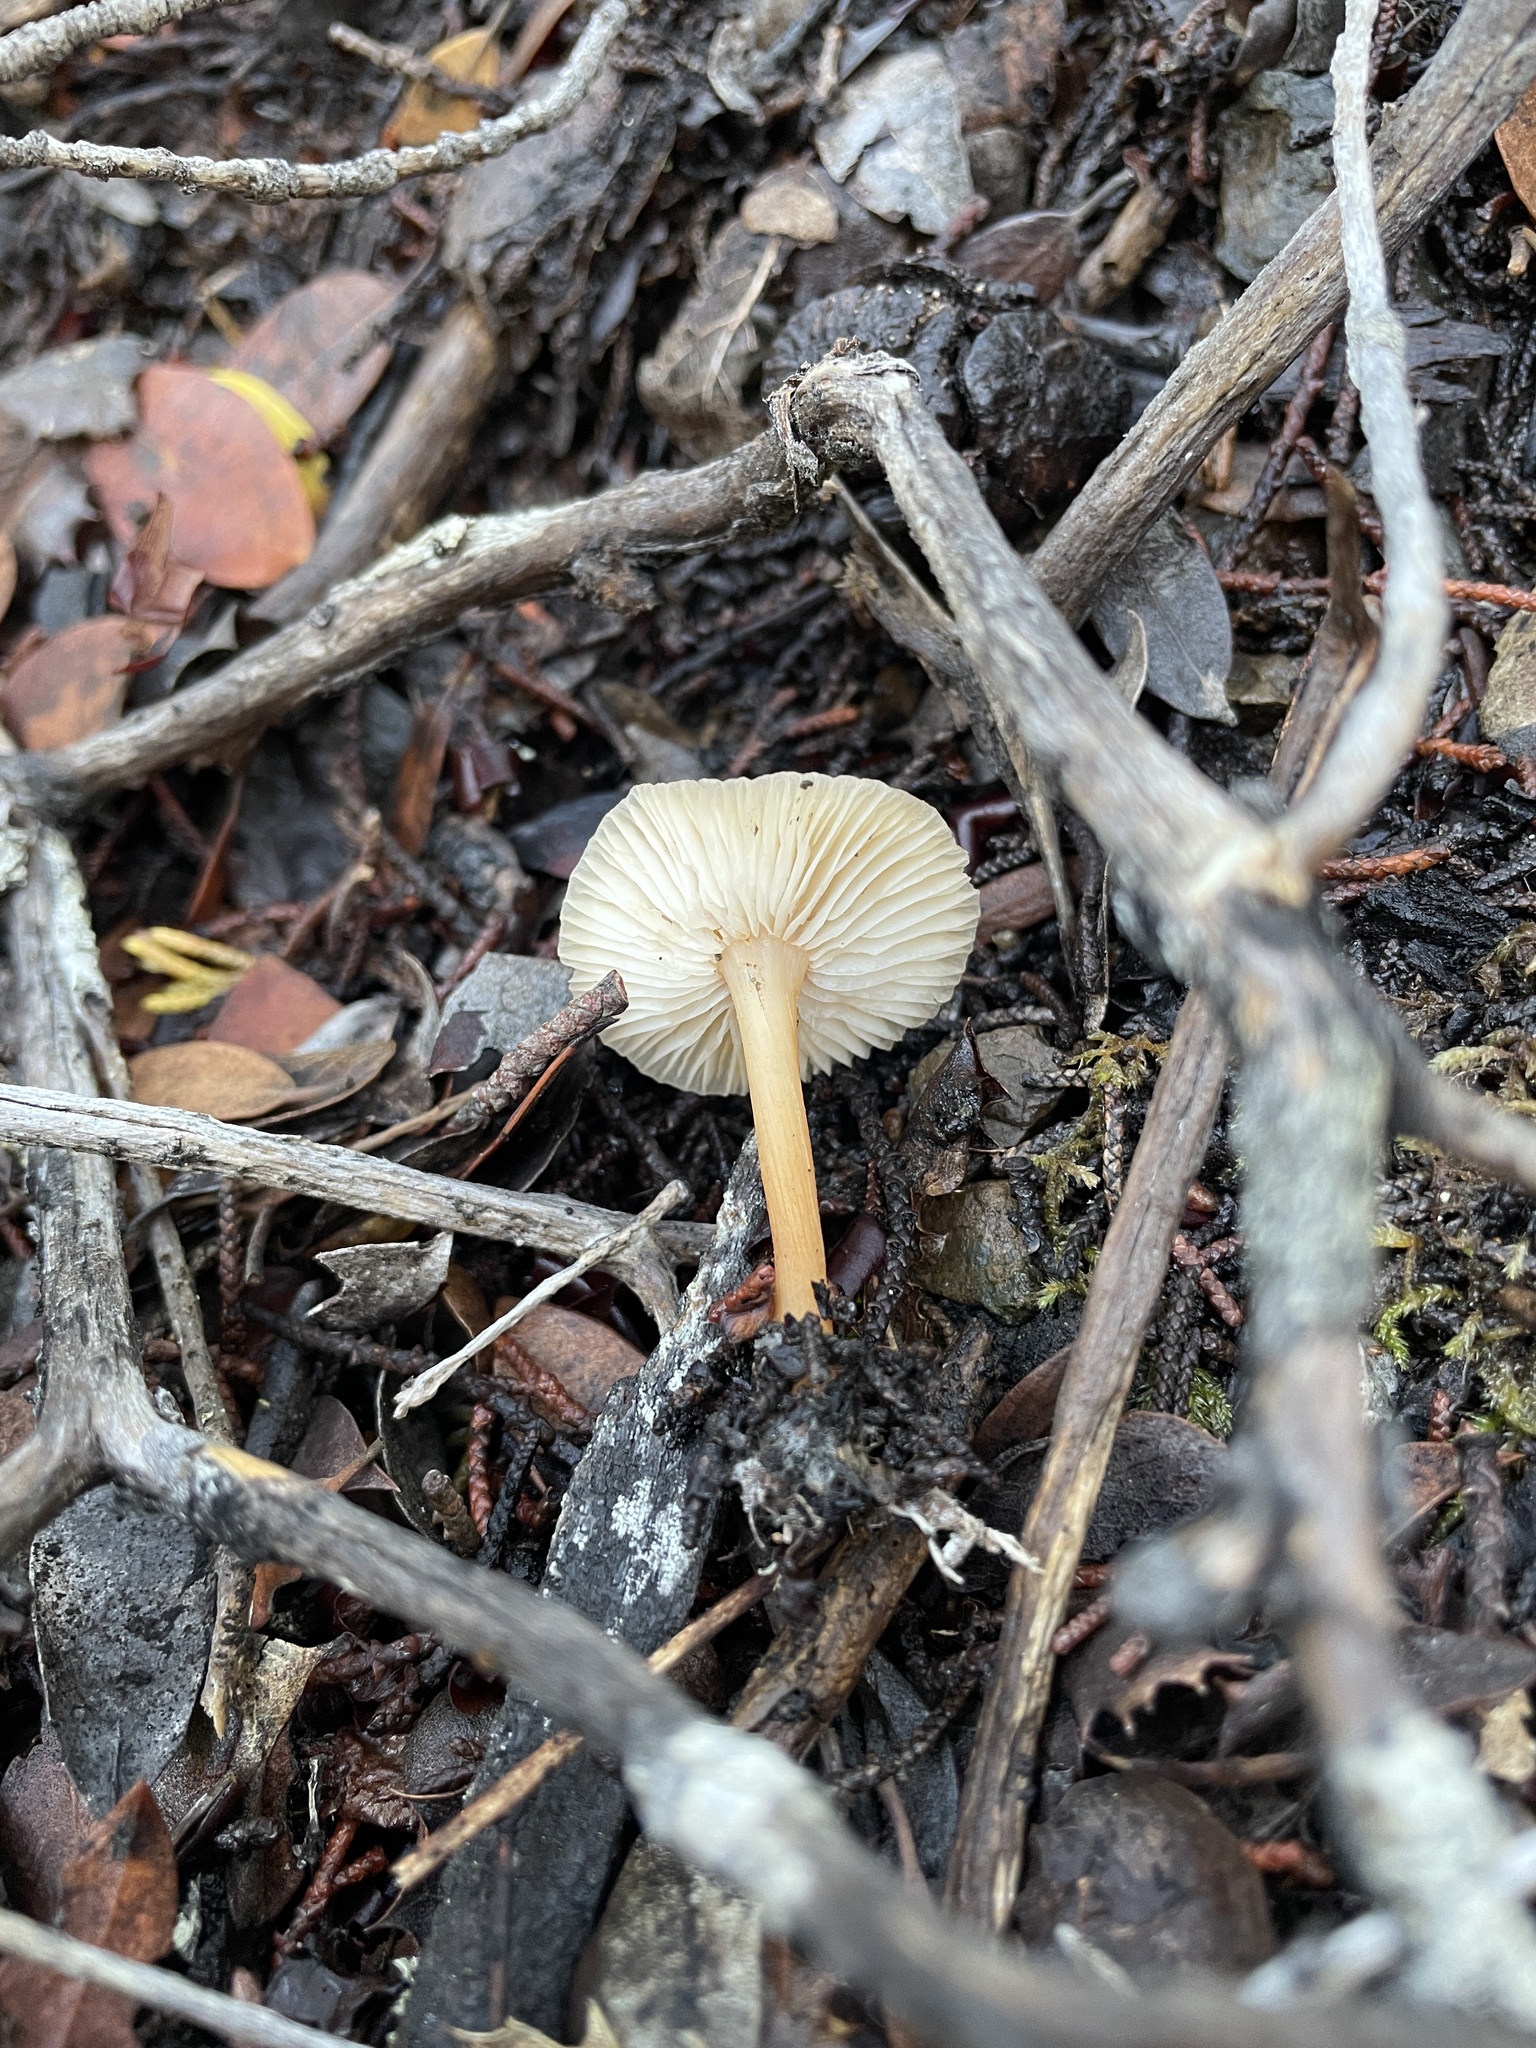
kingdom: Fungi
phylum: Basidiomycota
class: Agaricomycetes
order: Agaricales
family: Omphalotaceae
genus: Gymnopus
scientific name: Gymnopus dryophilus
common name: Penny top
